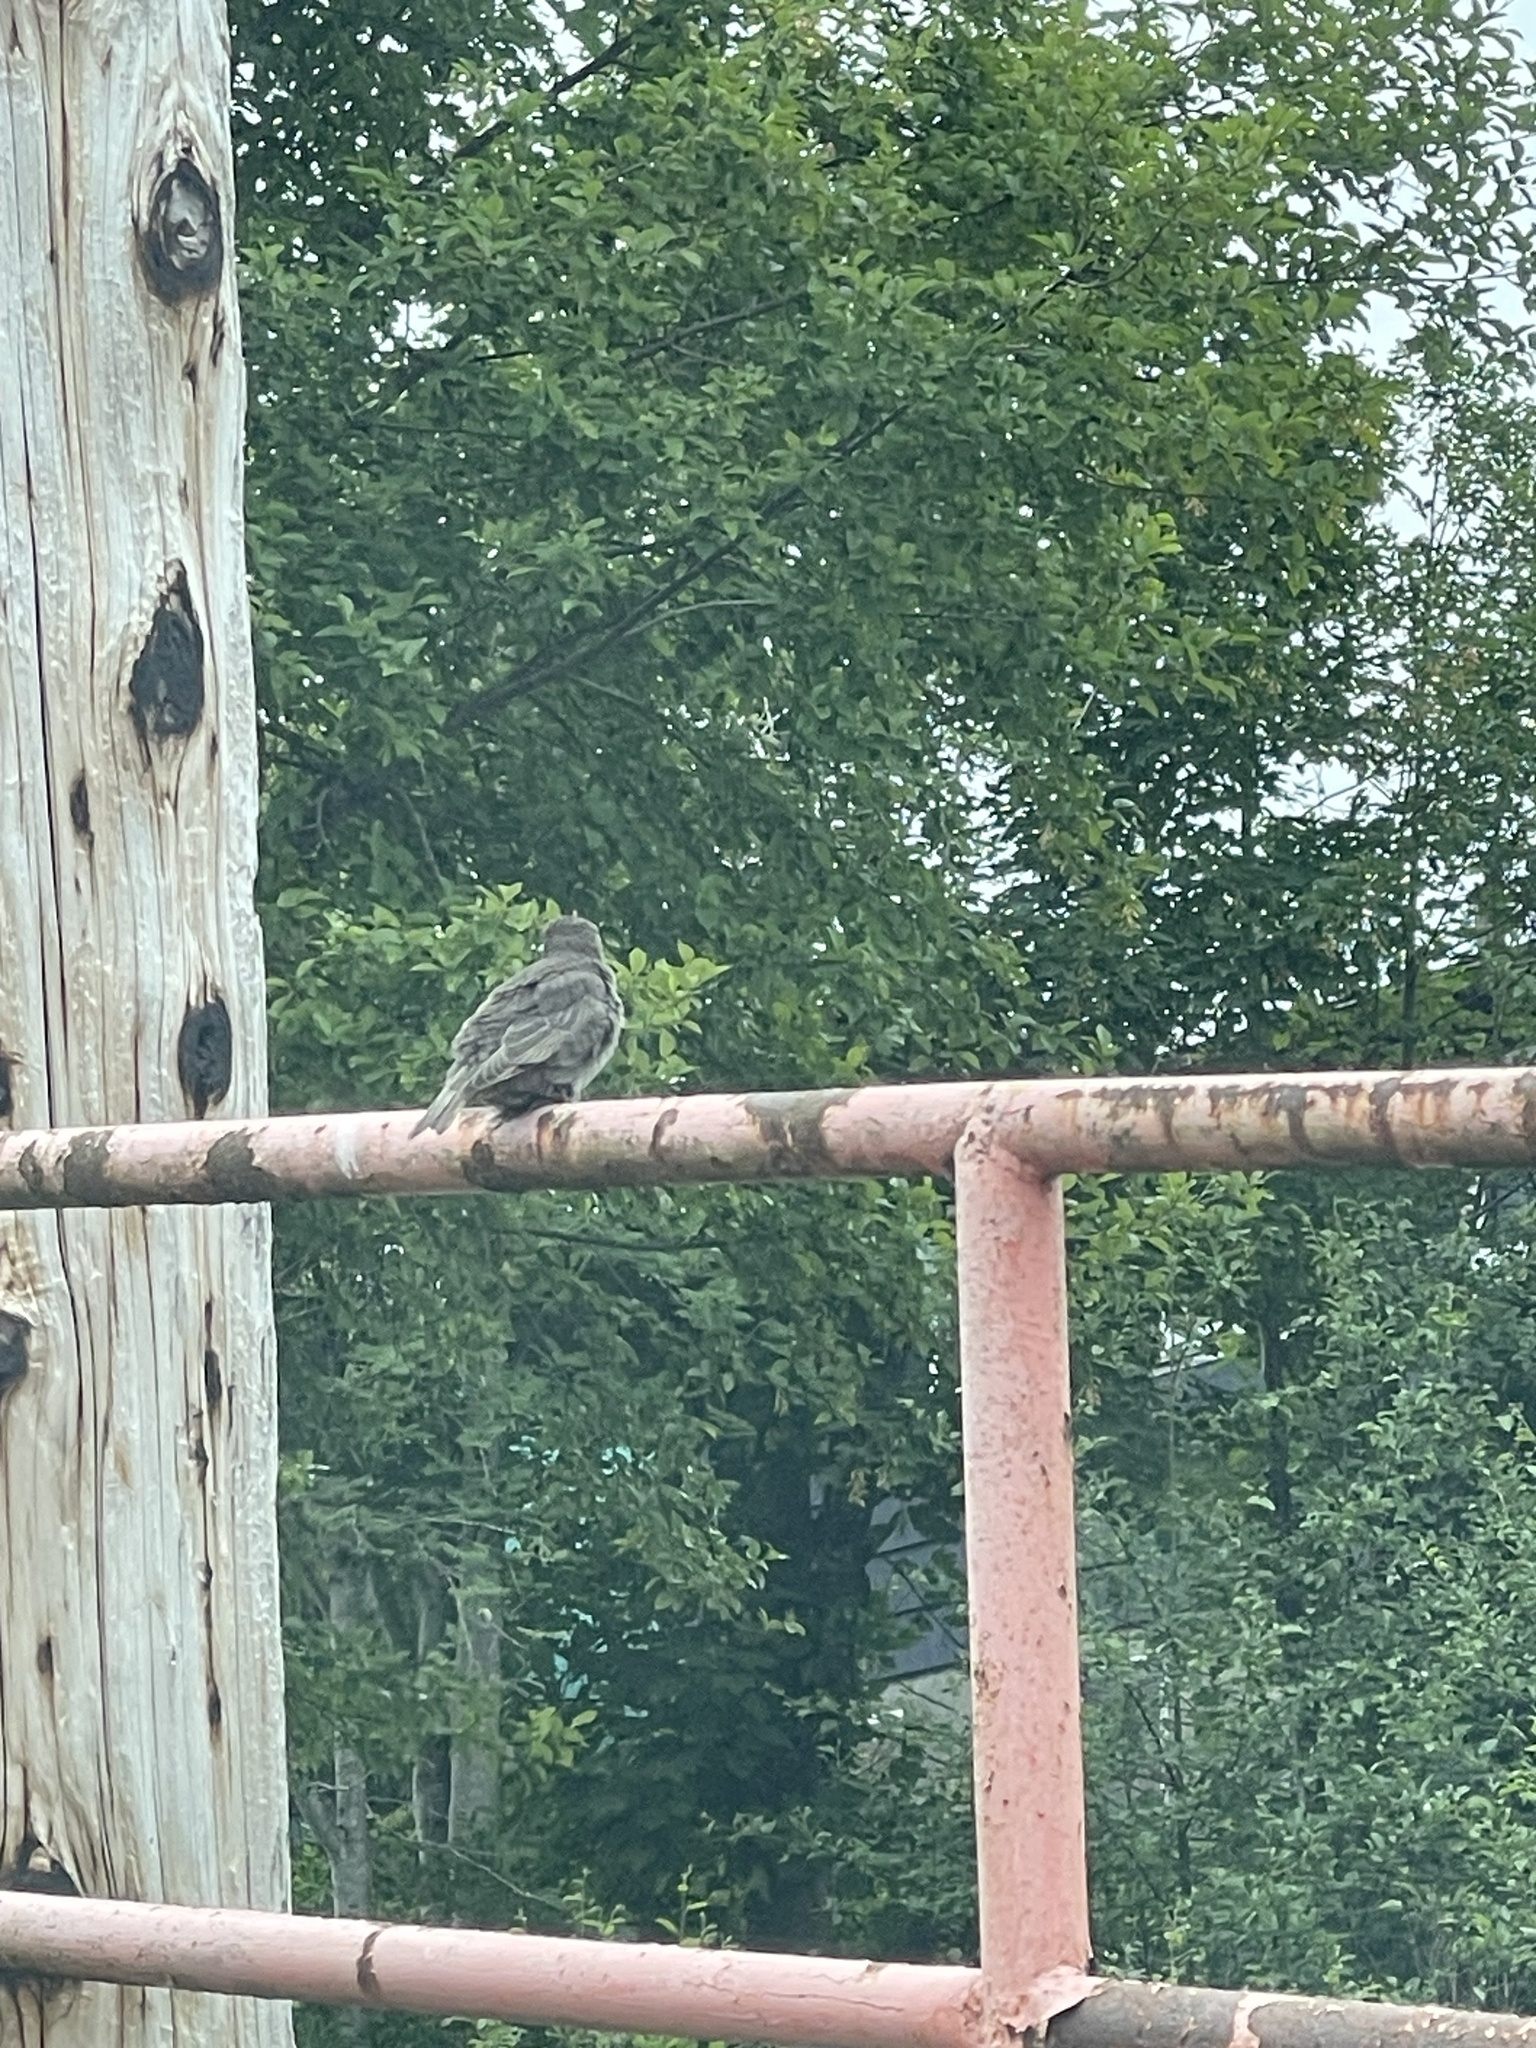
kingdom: Animalia
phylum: Chordata
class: Aves
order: Passeriformes
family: Sturnidae
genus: Sturnus
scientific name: Sturnus vulgaris
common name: Common starling
